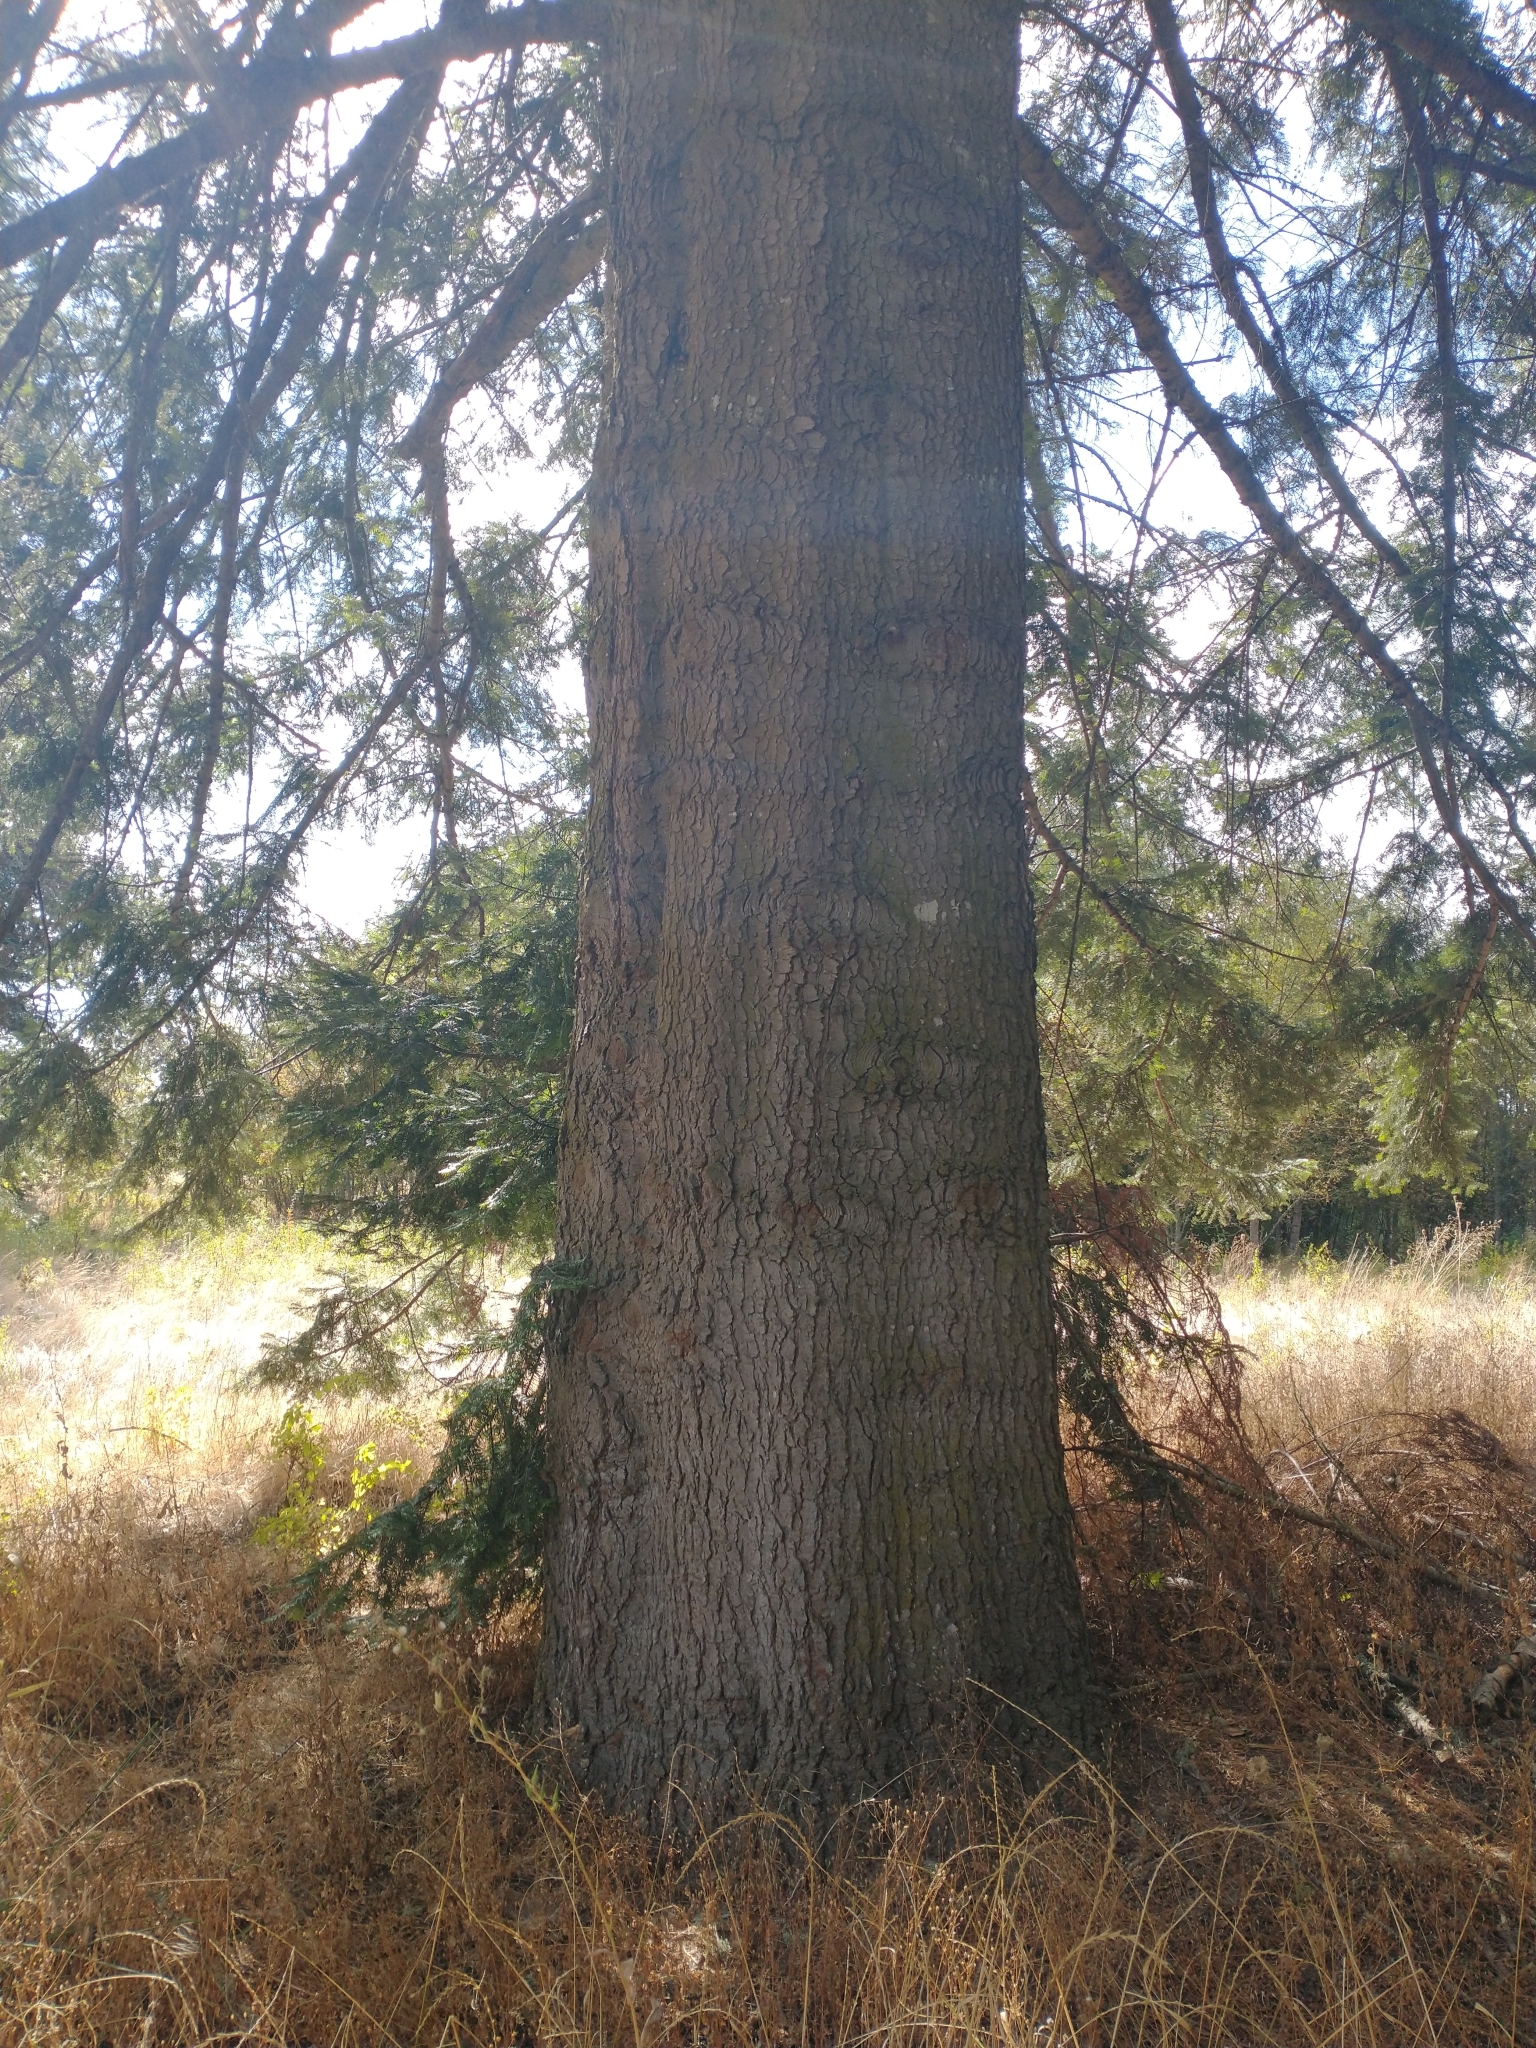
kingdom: Plantae
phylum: Tracheophyta
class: Pinopsida
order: Pinales
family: Pinaceae
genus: Abies
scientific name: Abies grandis
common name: Giant fir
